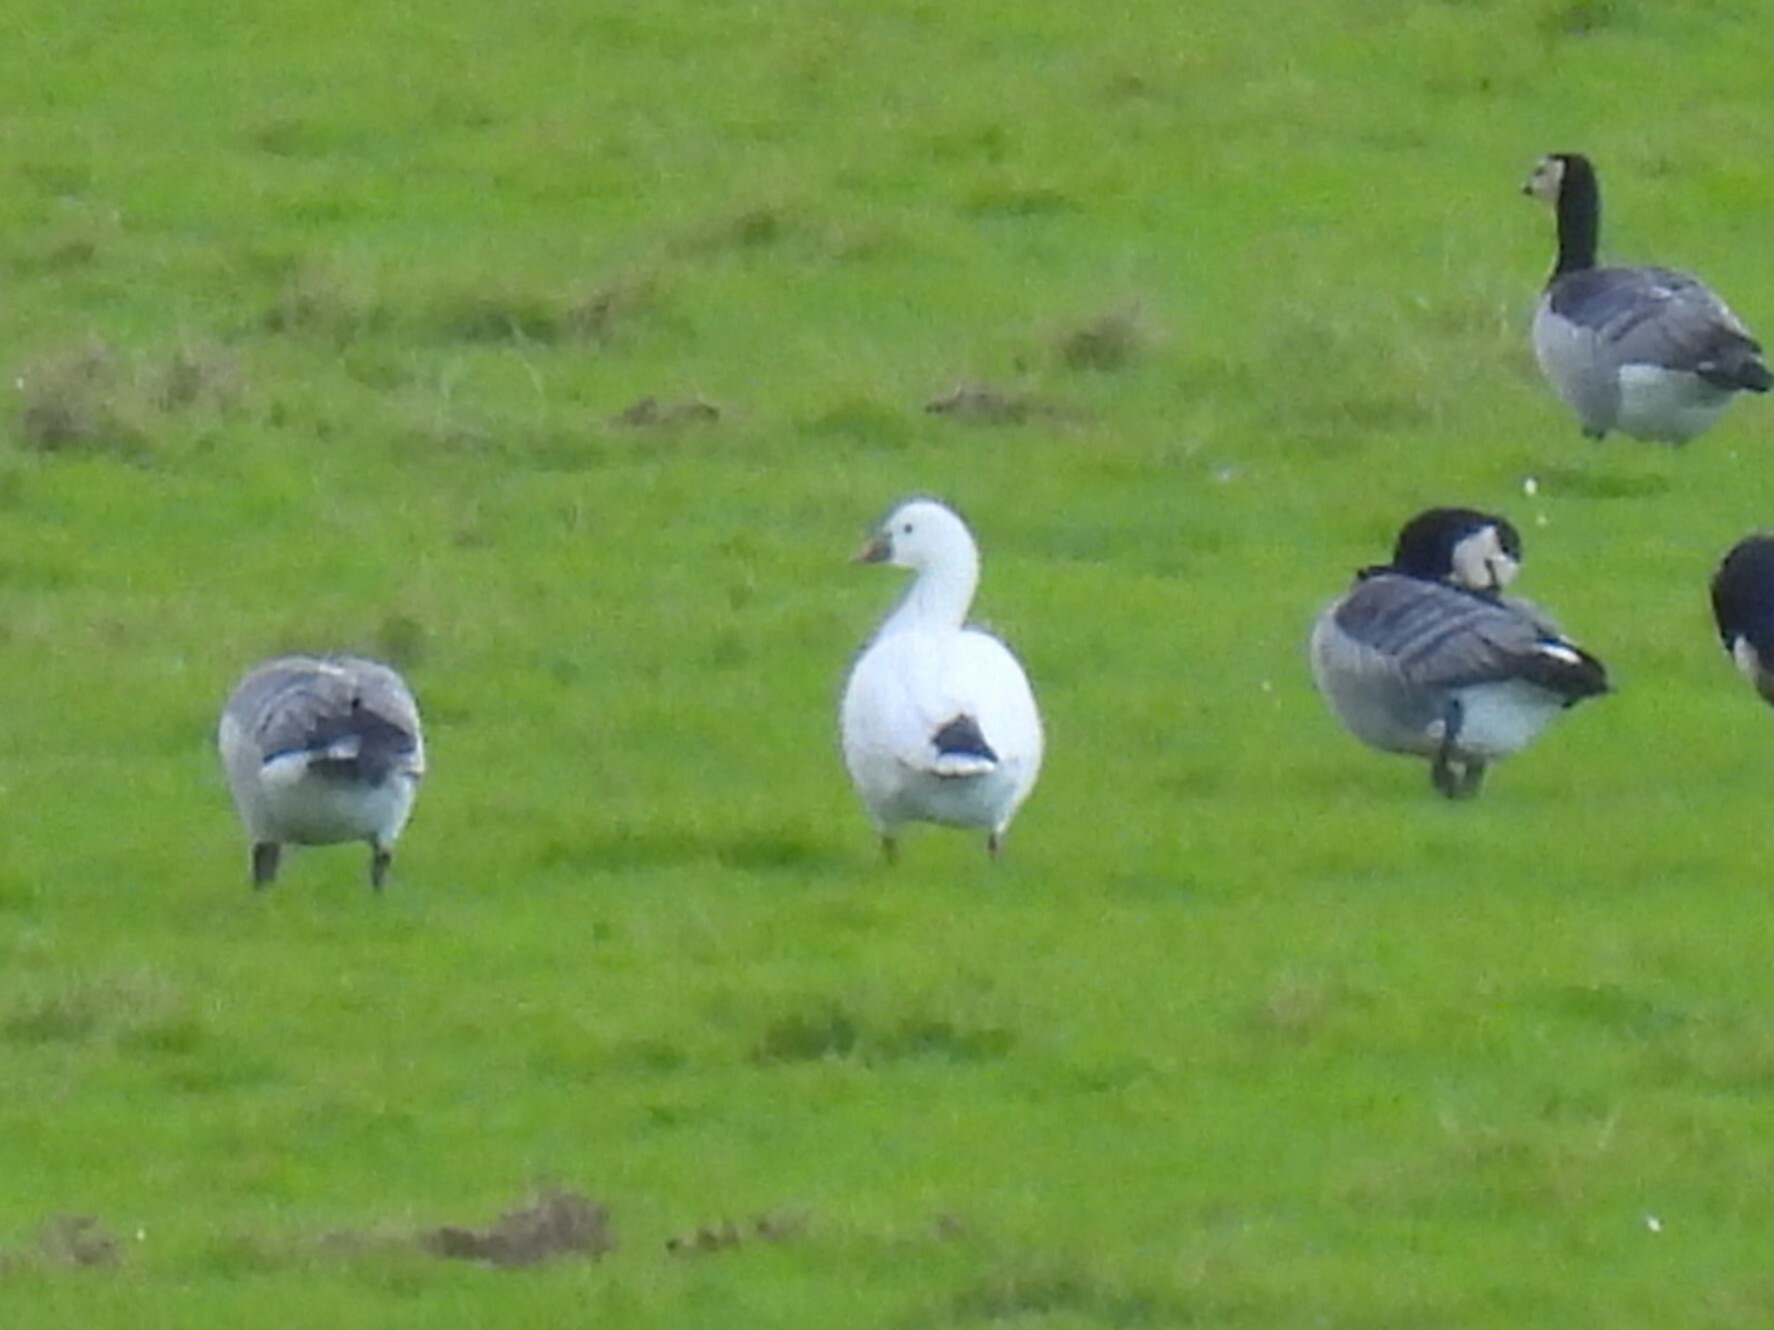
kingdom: Animalia
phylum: Chordata
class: Aves
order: Anseriformes
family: Anatidae
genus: Anser
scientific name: Anser rossii
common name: Ross's goose
